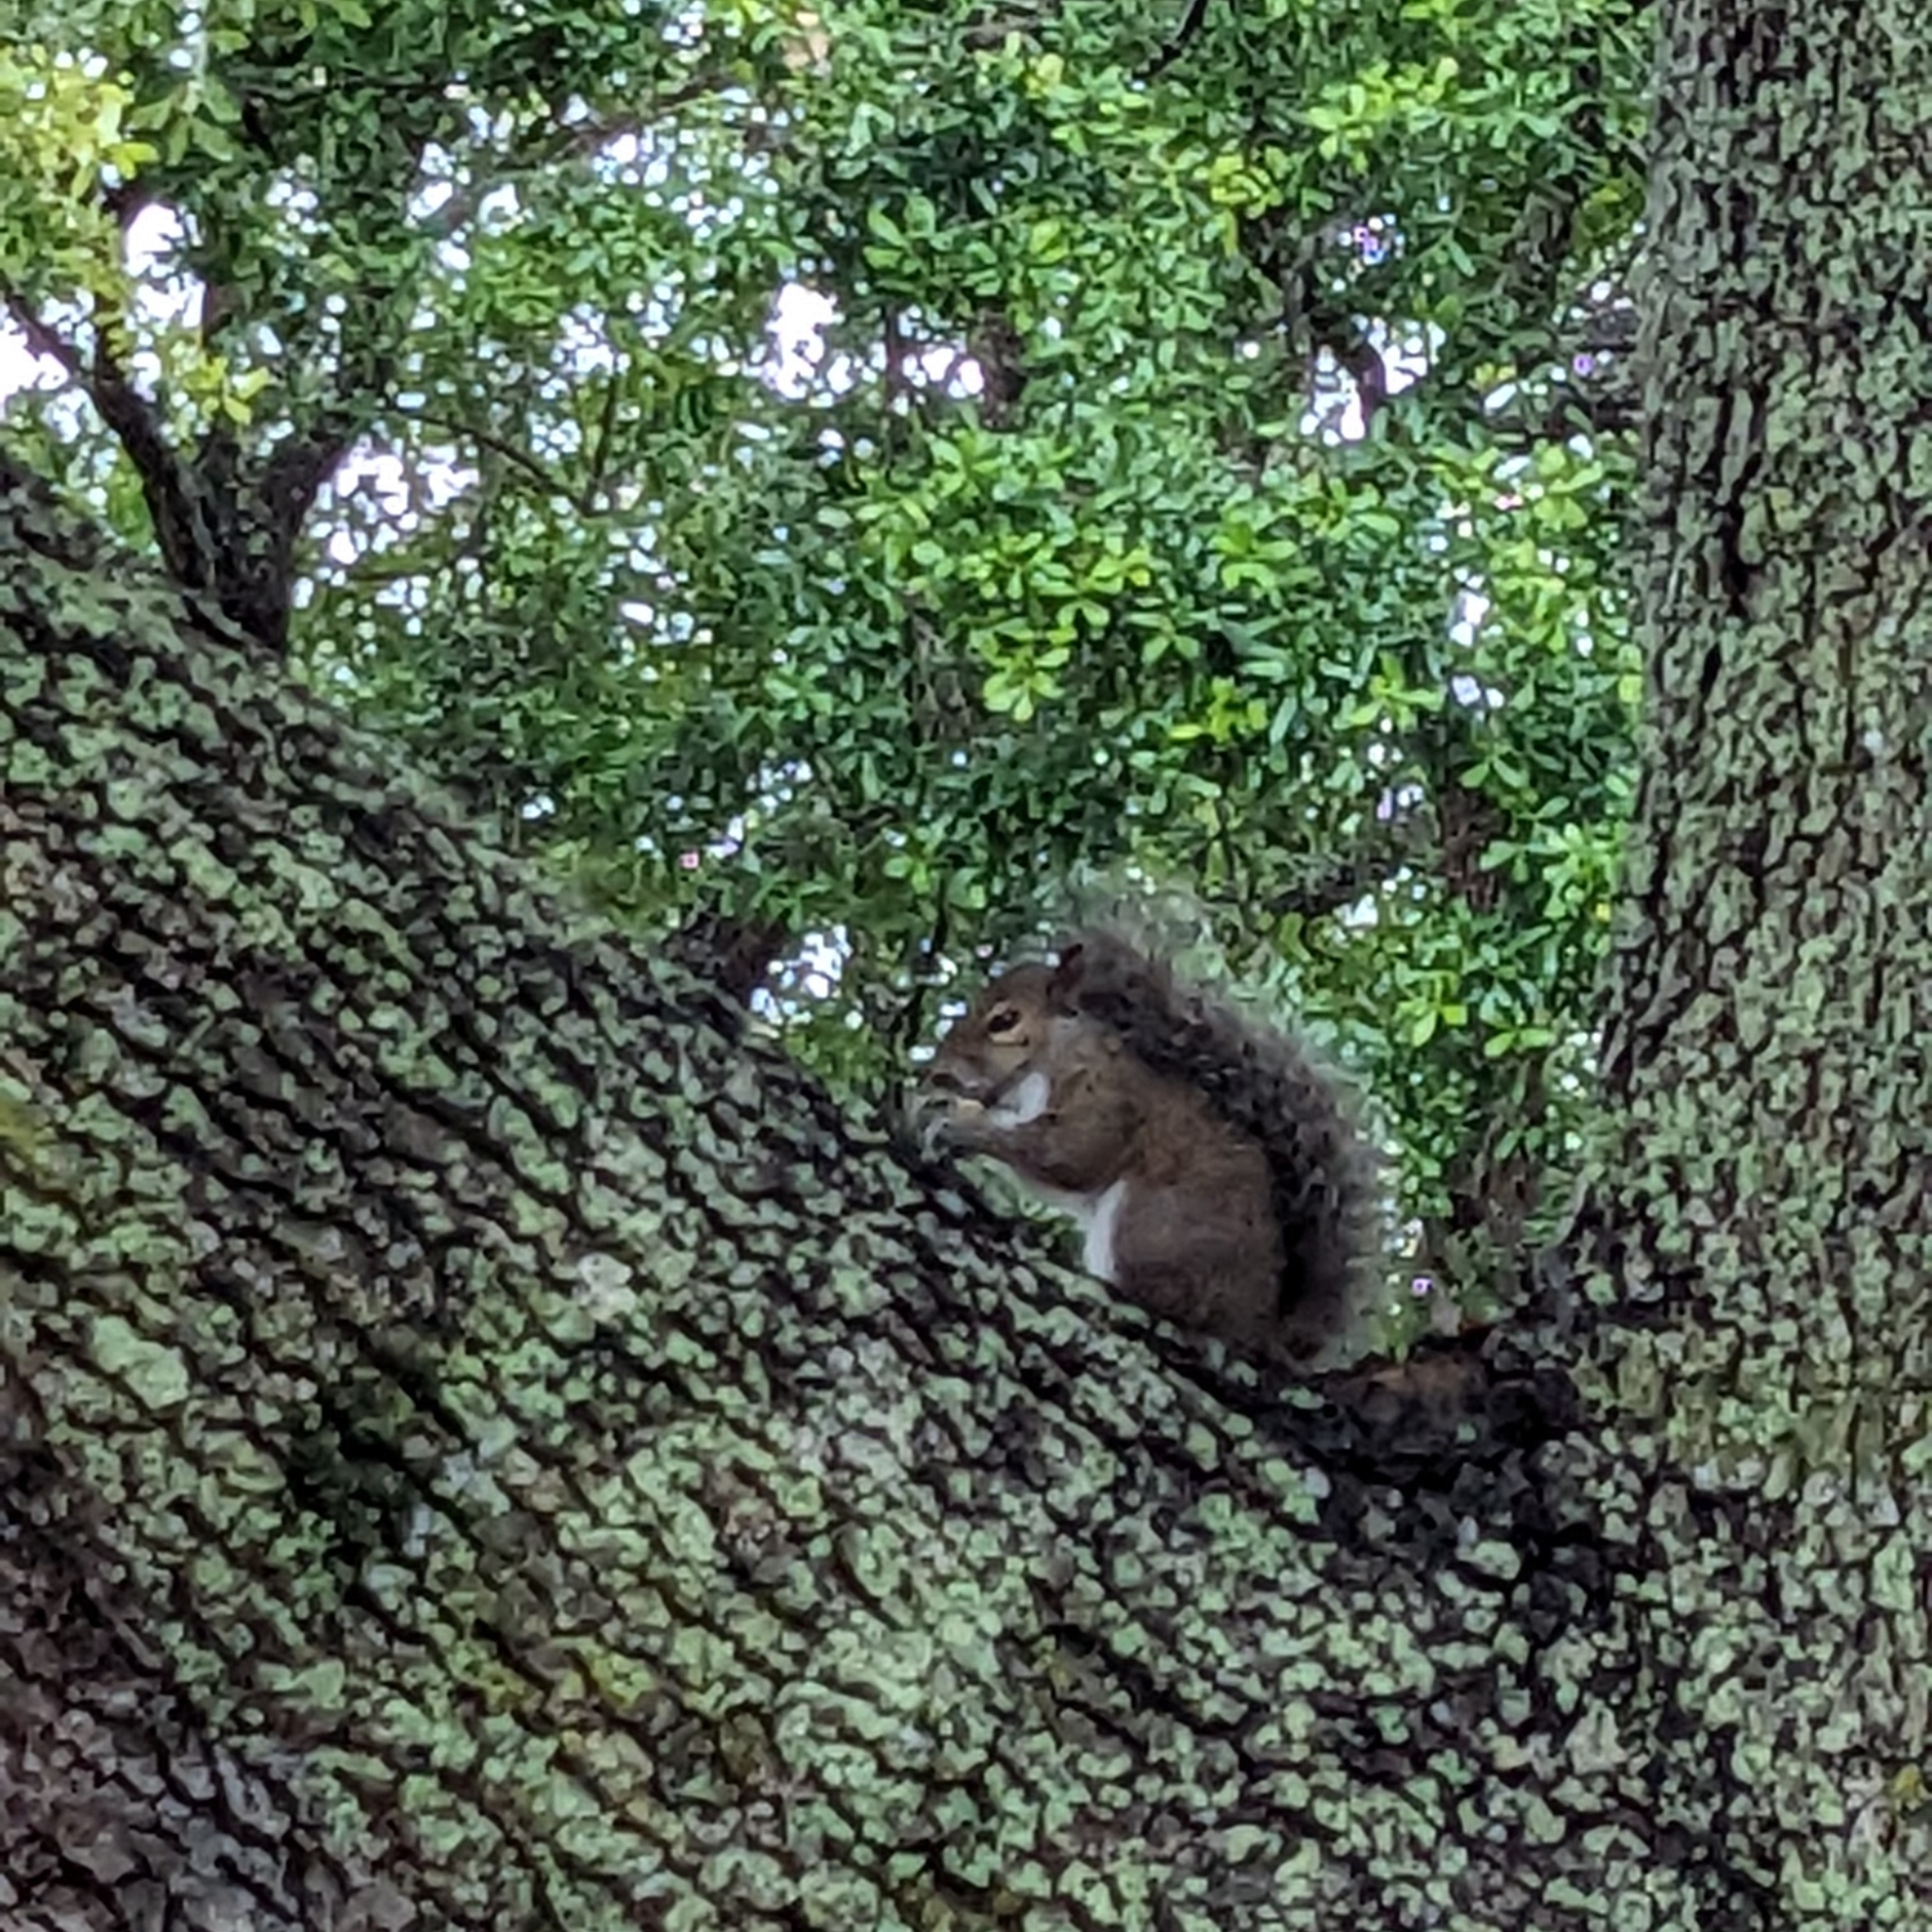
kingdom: Animalia
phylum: Chordata
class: Mammalia
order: Rodentia
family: Sciuridae
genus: Sciurus
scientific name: Sciurus carolinensis
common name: Eastern gray squirrel
